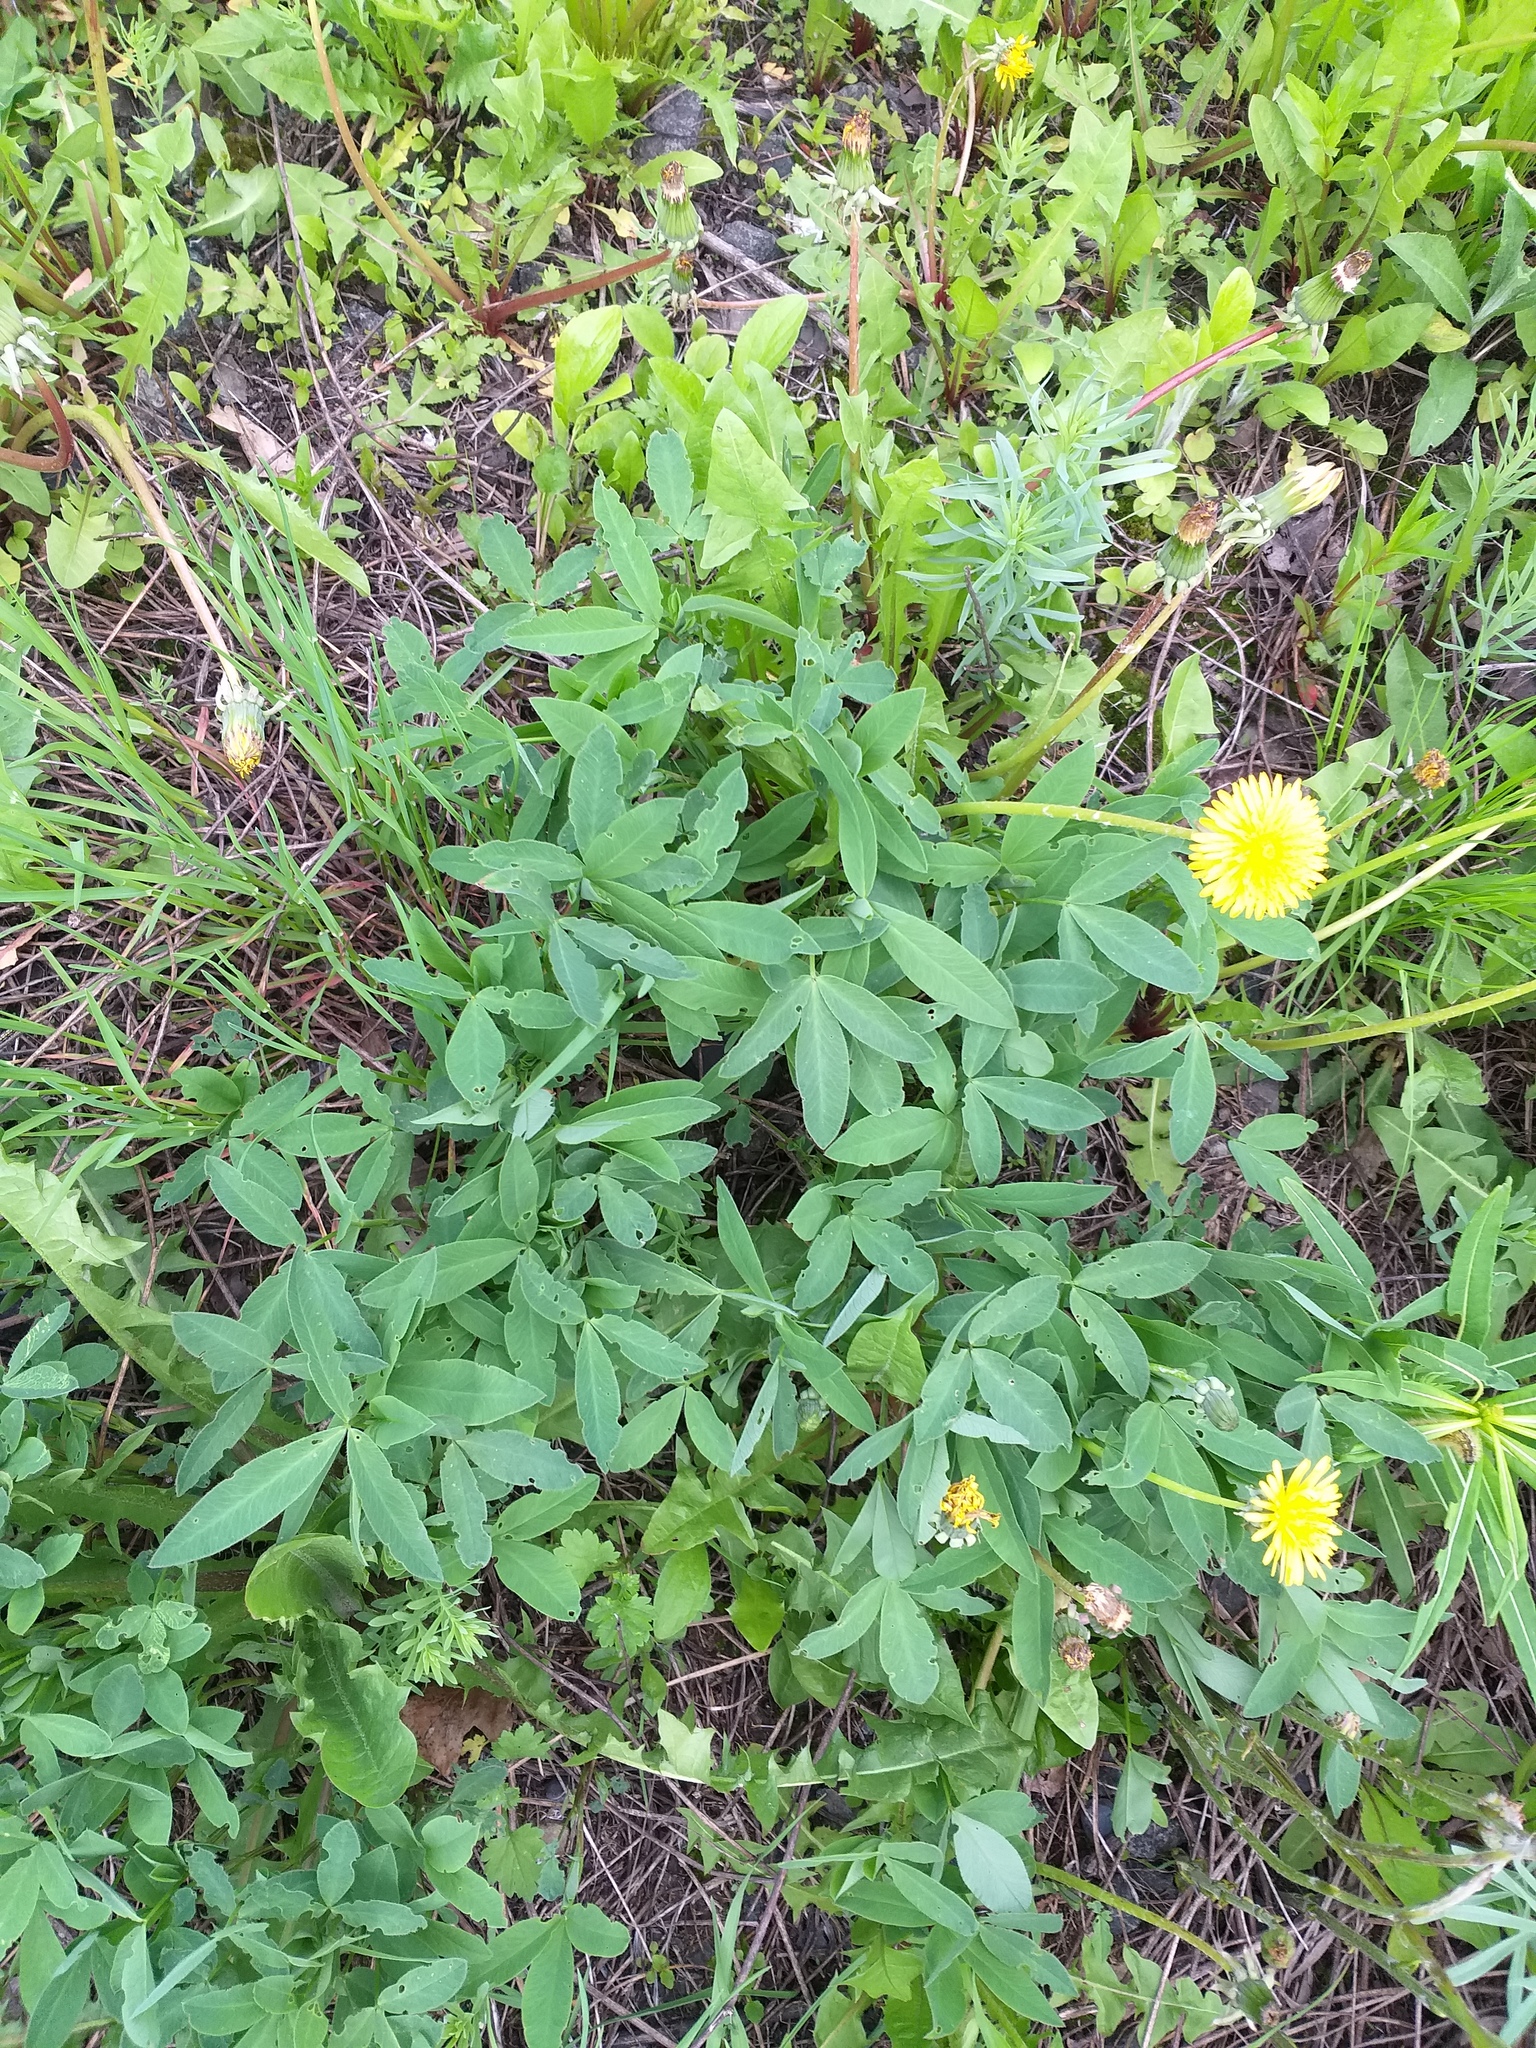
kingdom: Plantae
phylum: Tracheophyta
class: Magnoliopsida
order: Fabales
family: Fabaceae
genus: Trifolium
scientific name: Trifolium medium
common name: Zigzag clover
